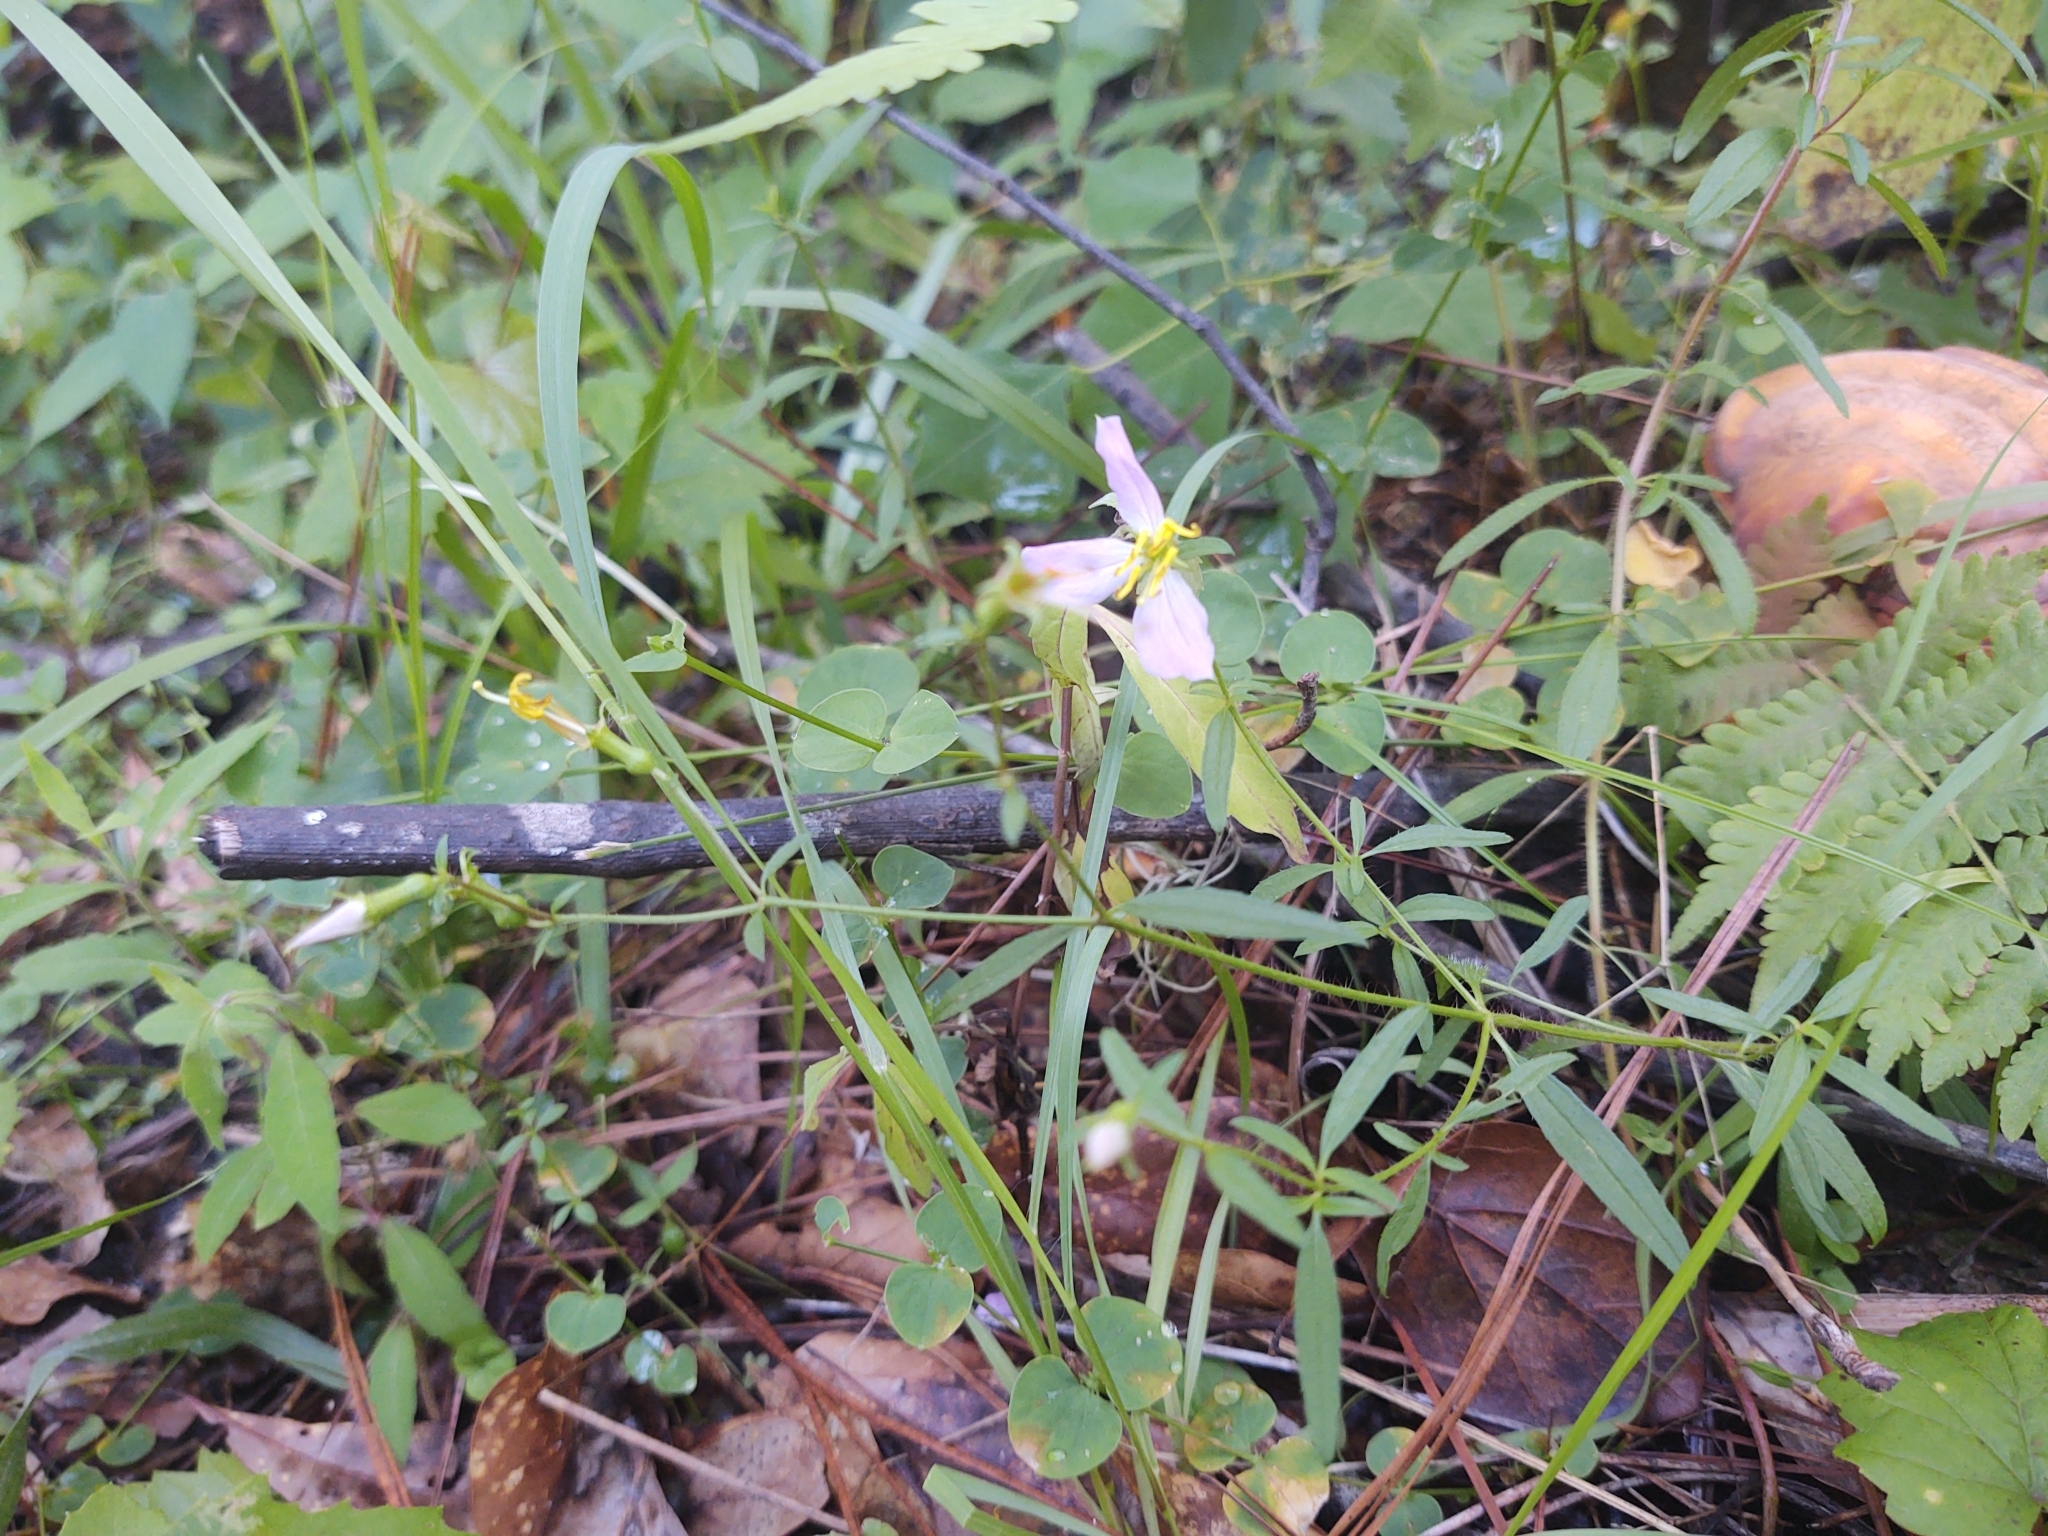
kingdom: Plantae
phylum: Tracheophyta
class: Magnoliopsida
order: Myrtales
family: Melastomataceae
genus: Rhexia
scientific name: Rhexia mariana
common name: Dull meadow-pitcher
